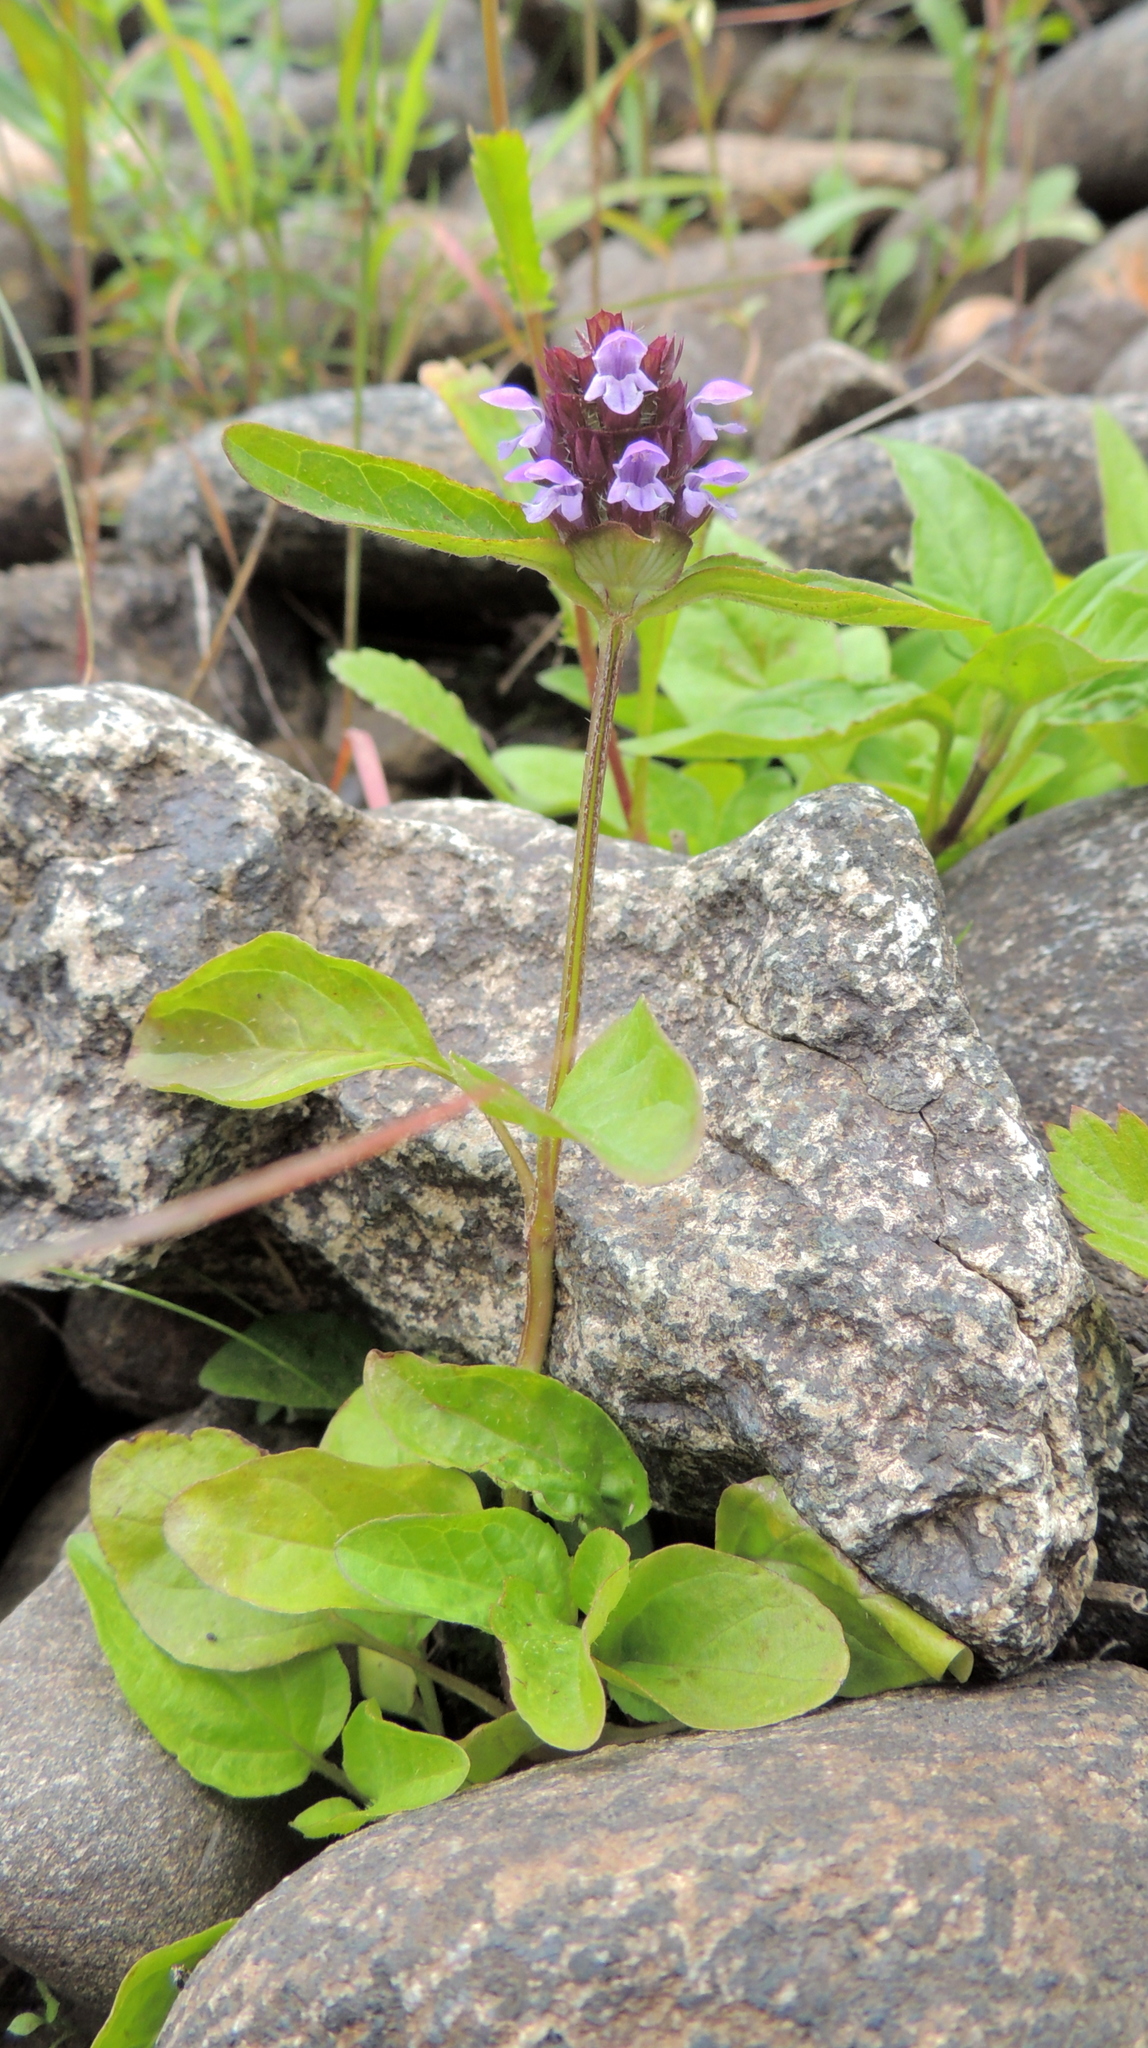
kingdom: Plantae
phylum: Tracheophyta
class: Magnoliopsida
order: Lamiales
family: Lamiaceae
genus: Prunella
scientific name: Prunella vulgaris
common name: Heal-all
